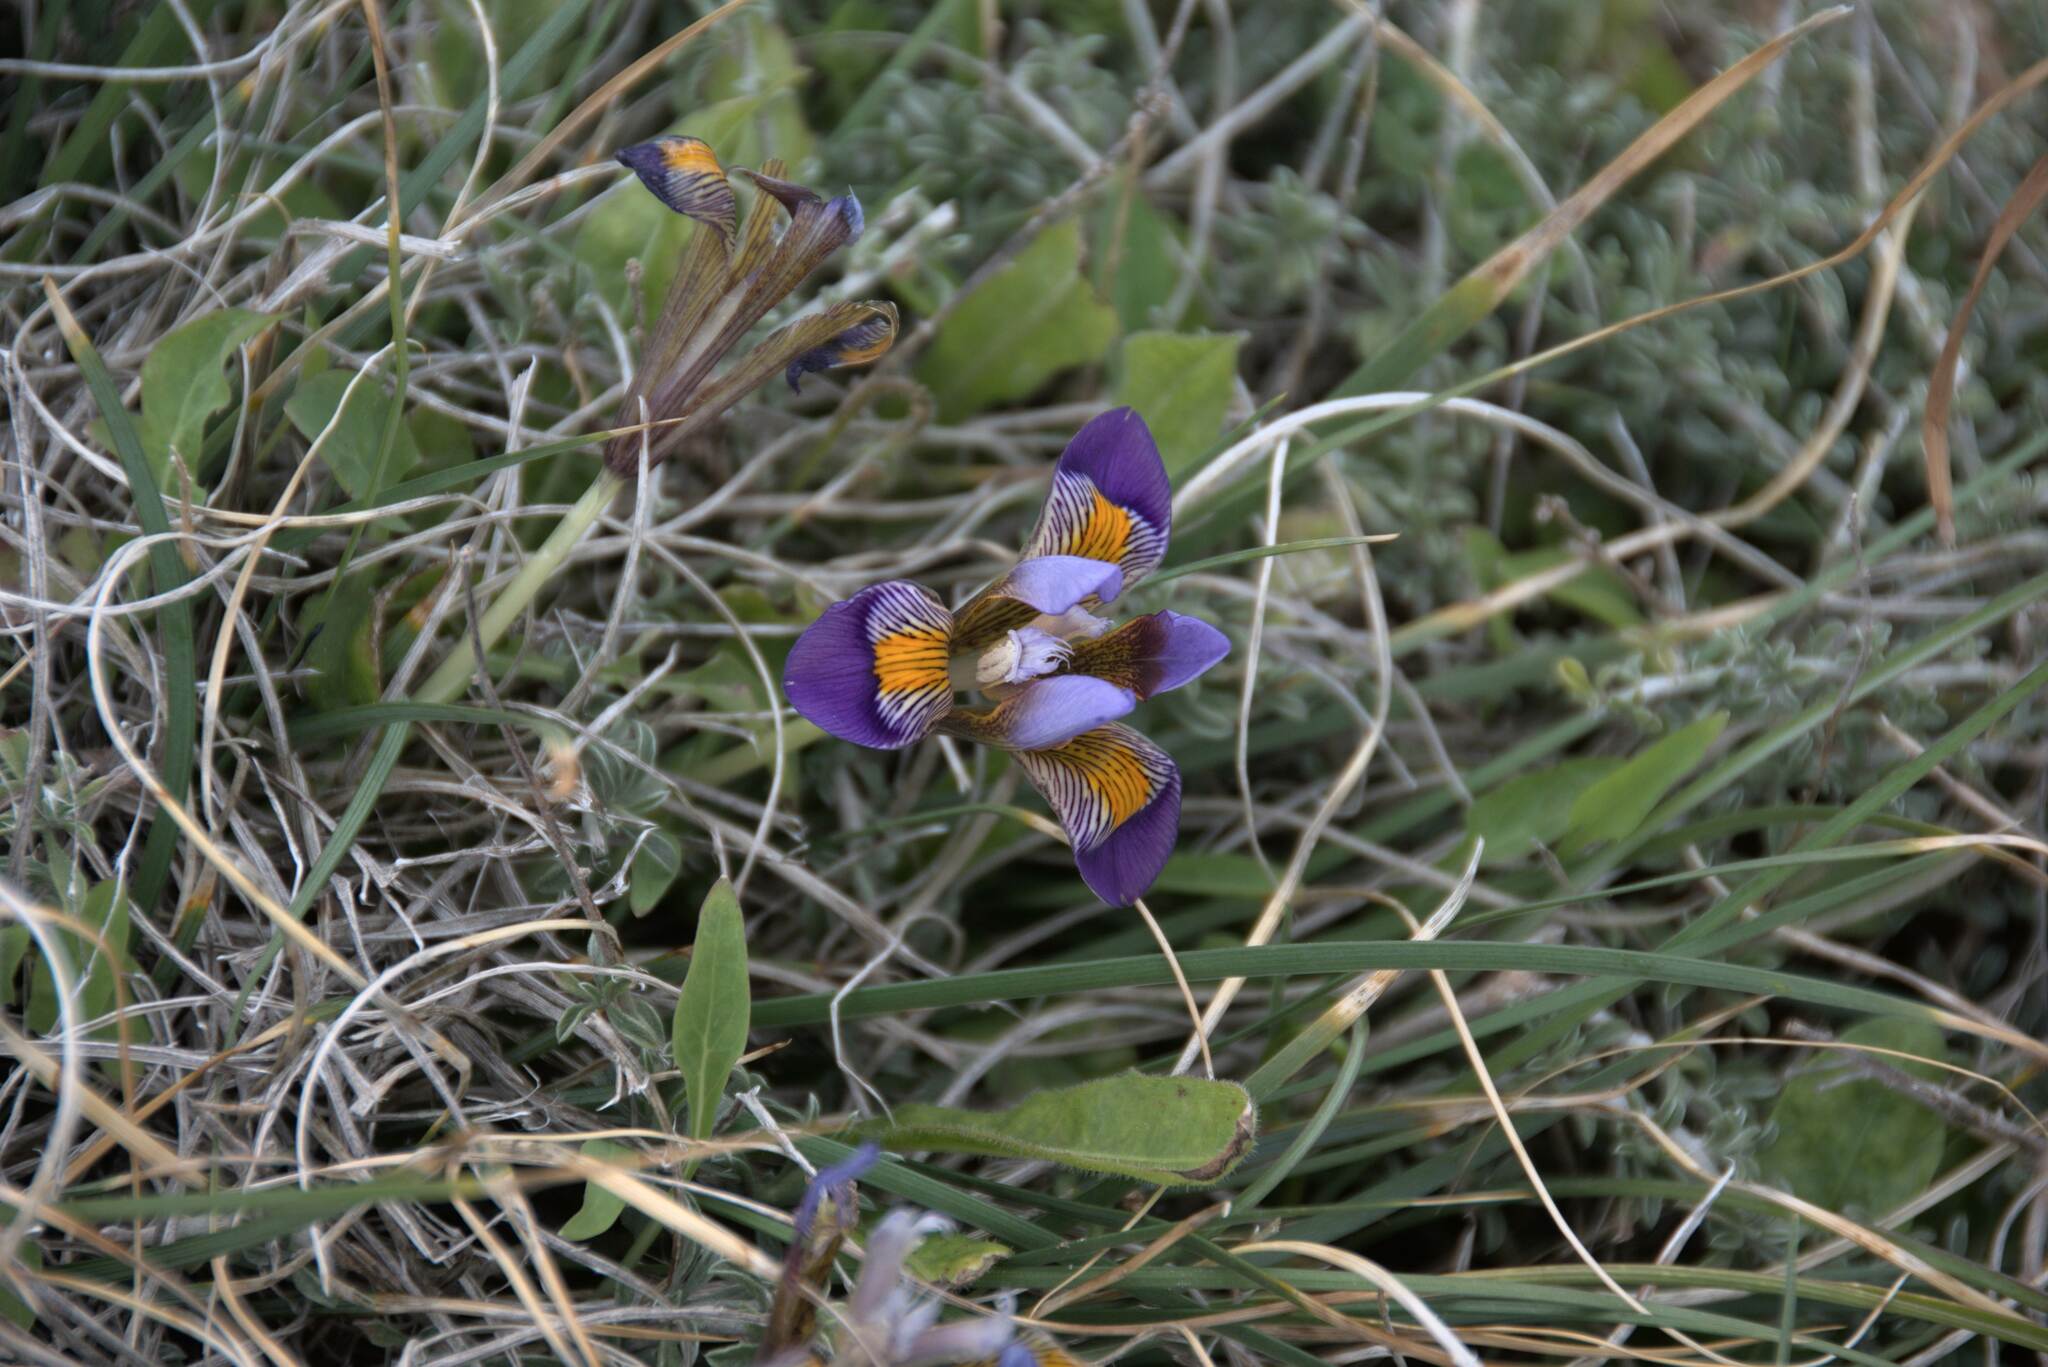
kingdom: Plantae
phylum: Tracheophyta
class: Liliopsida
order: Asparagales
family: Iridaceae
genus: Iris
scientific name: Iris unguicularis
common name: Algerian iris
